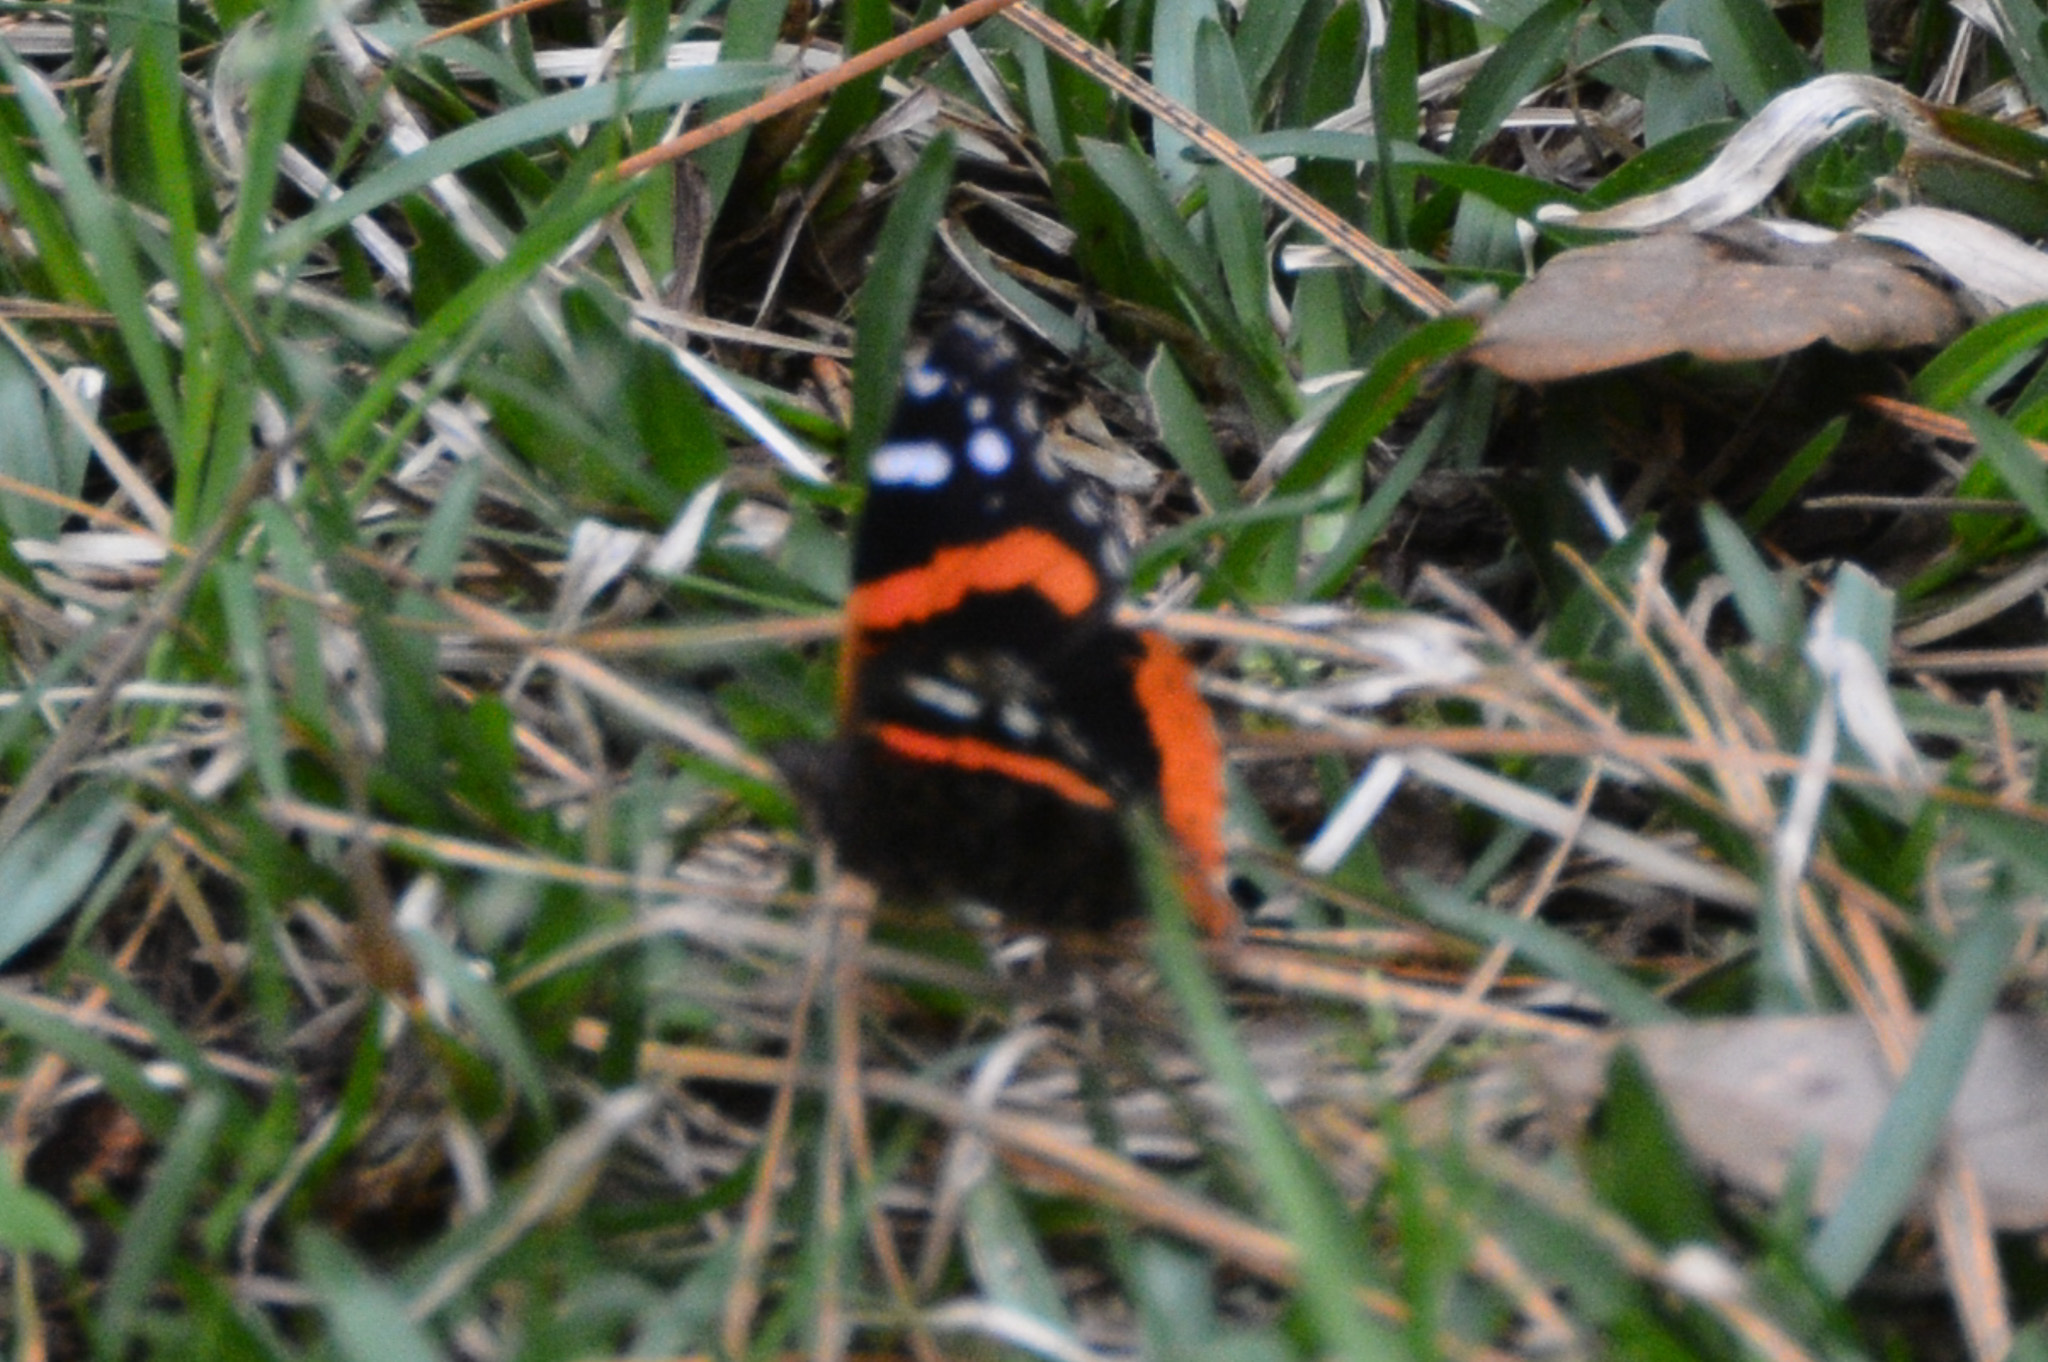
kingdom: Animalia
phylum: Arthropoda
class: Insecta
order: Lepidoptera
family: Nymphalidae
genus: Vanessa
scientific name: Vanessa atalanta
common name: Red admiral
